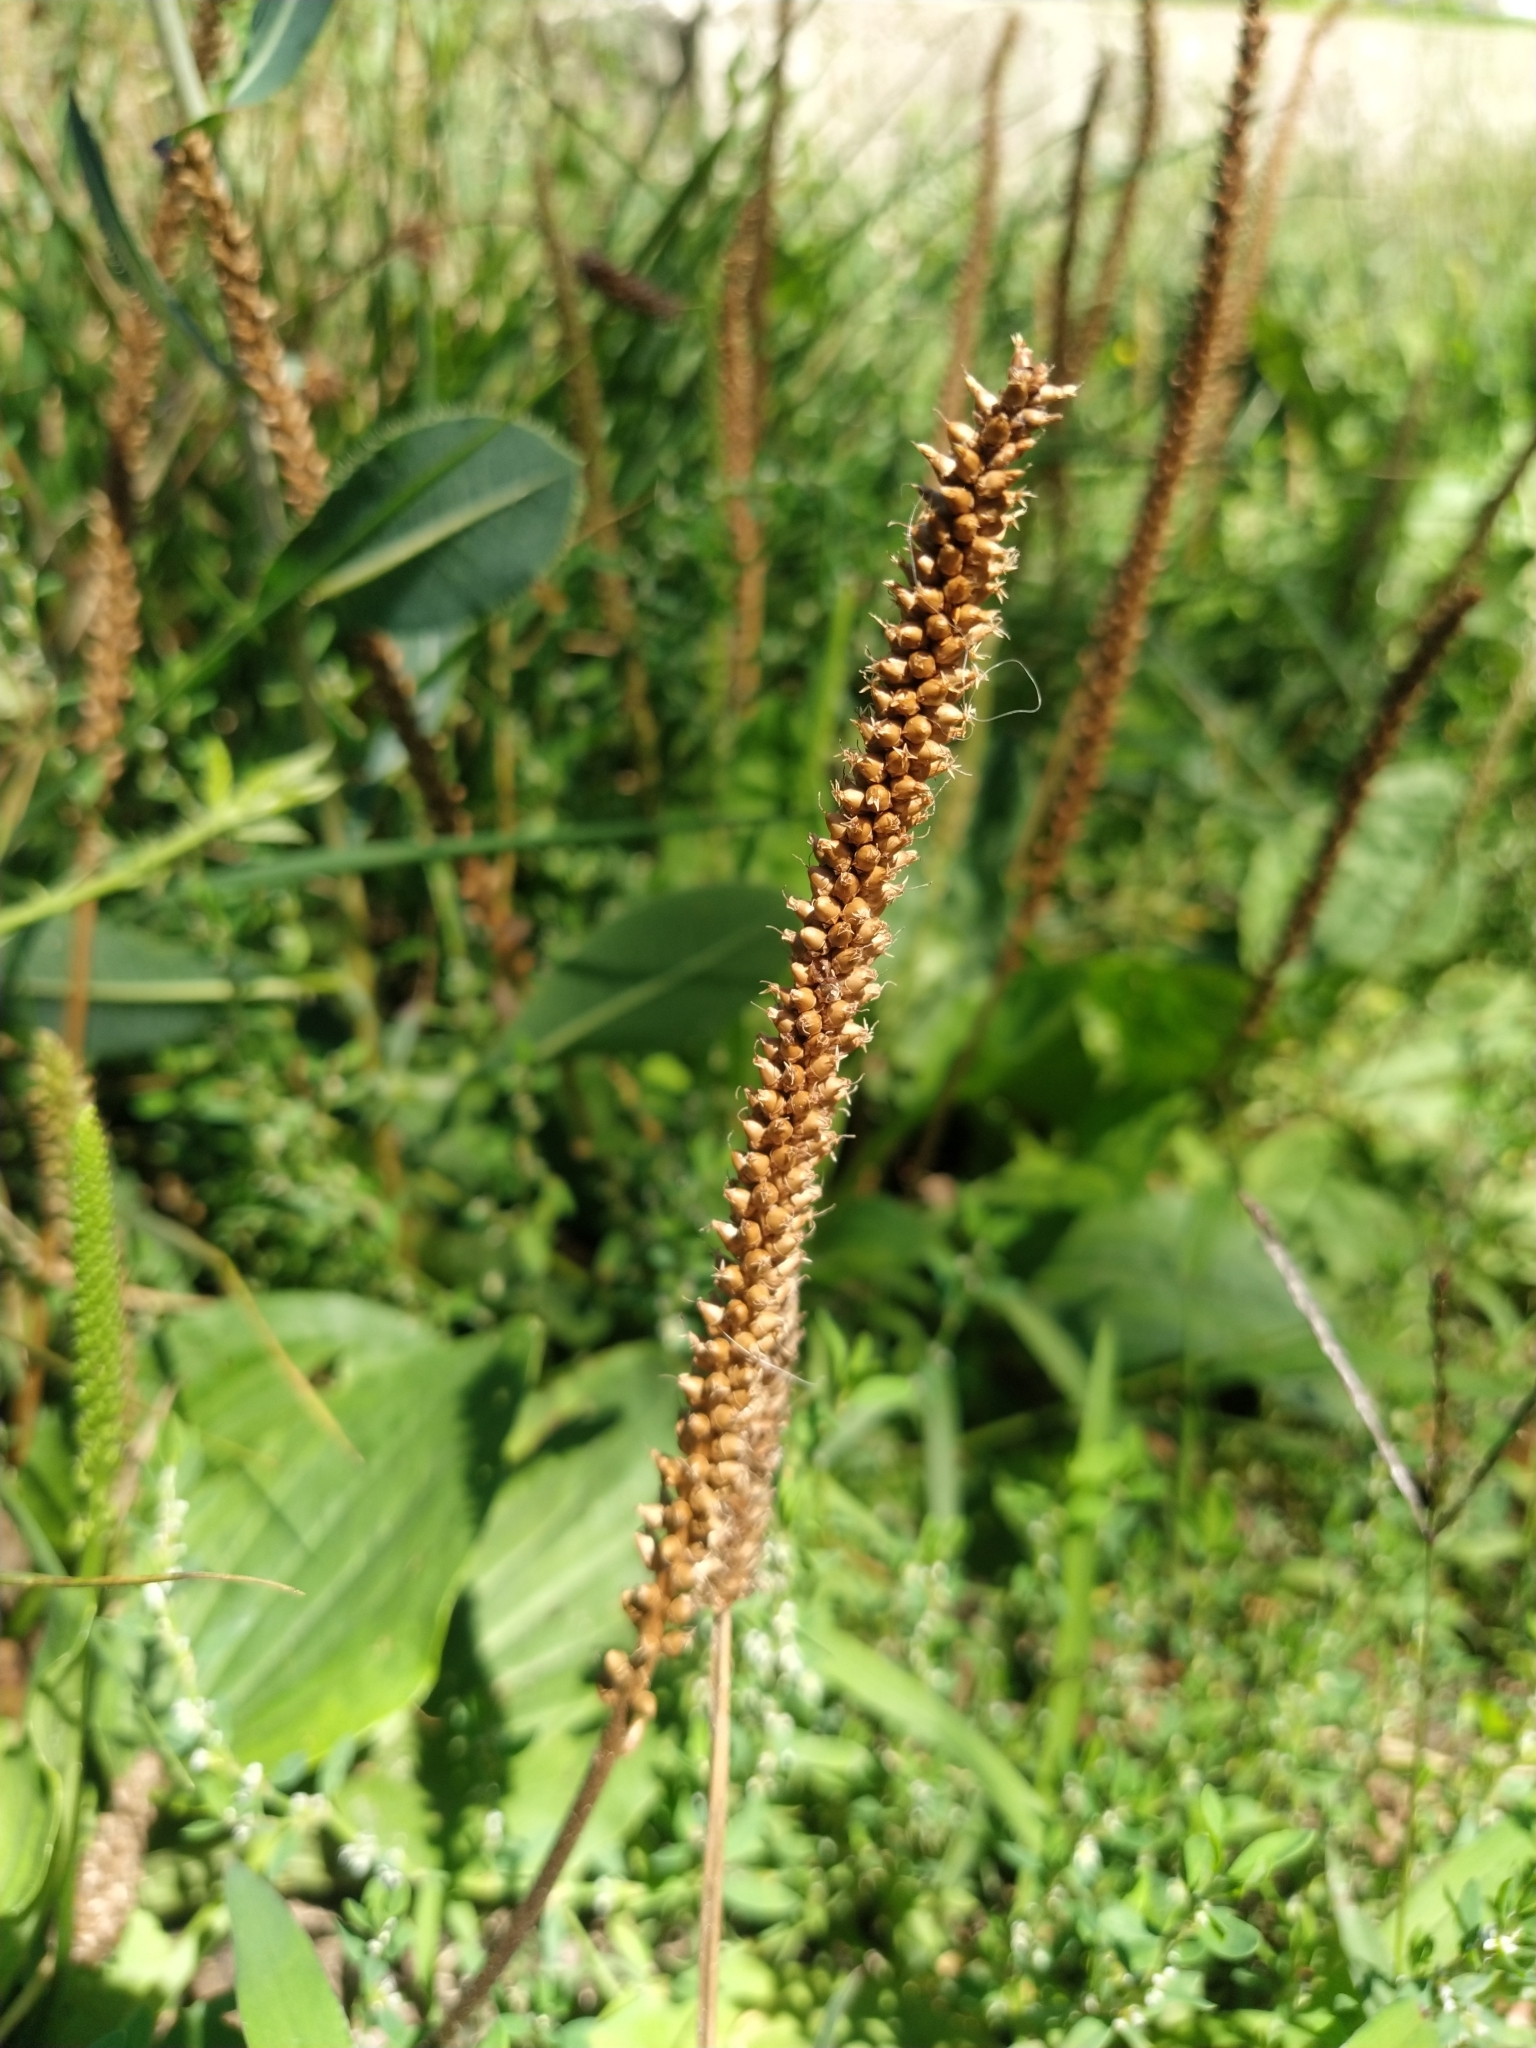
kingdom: Plantae
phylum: Tracheophyta
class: Magnoliopsida
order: Lamiales
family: Plantaginaceae
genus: Plantago
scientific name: Plantago major
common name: Common plantain
